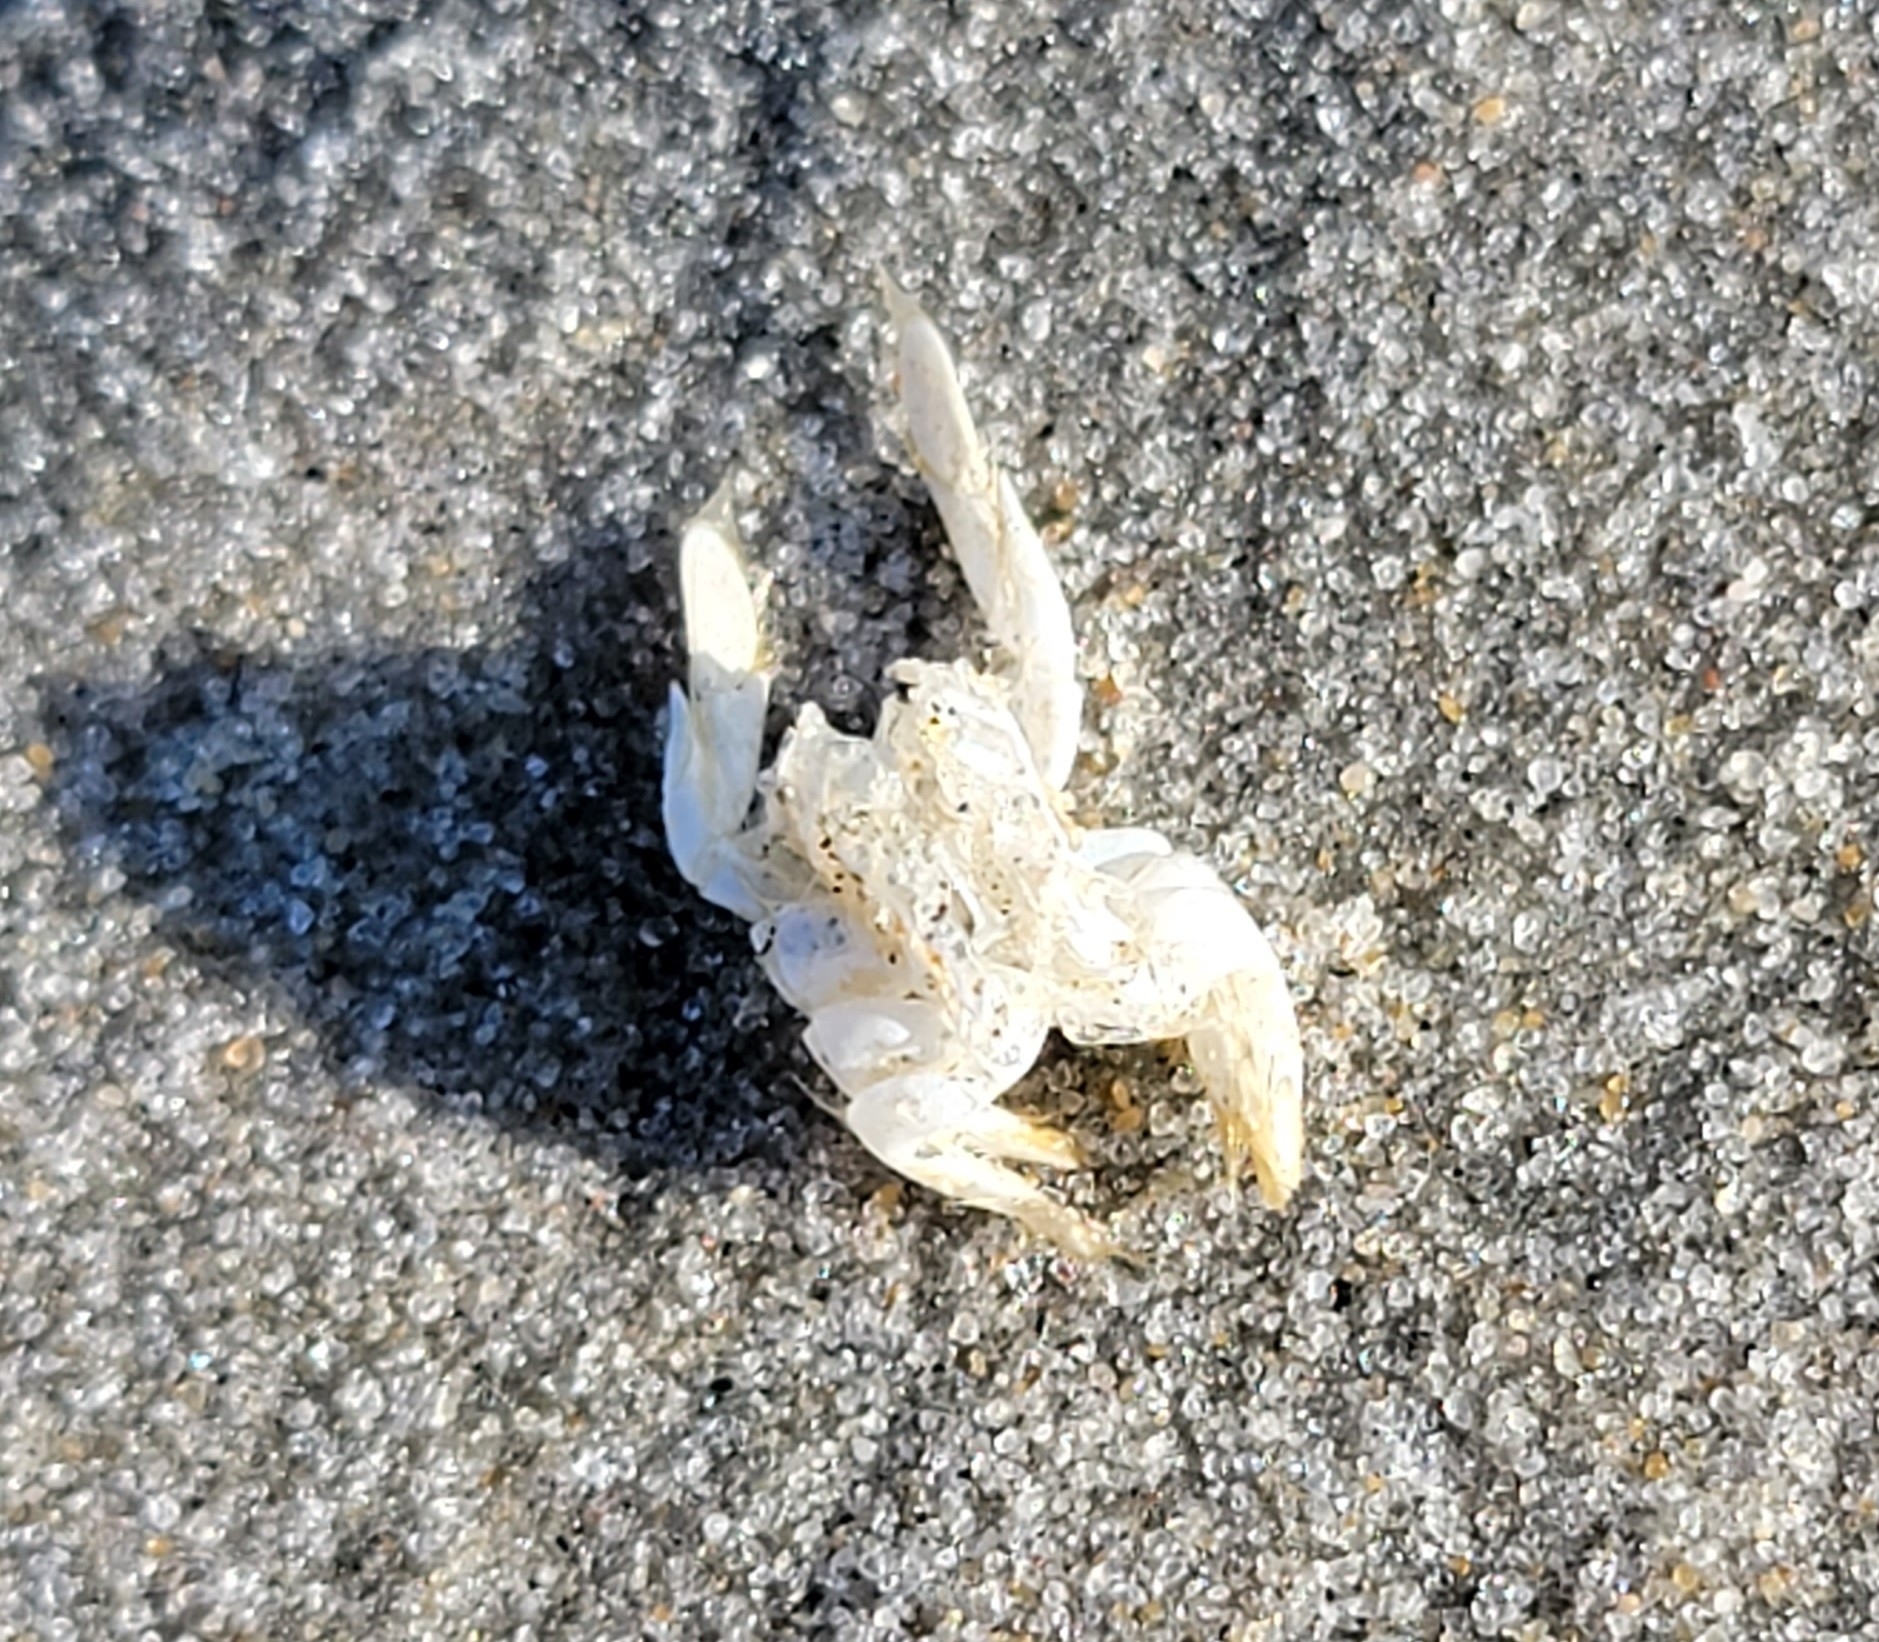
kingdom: Animalia
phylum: Arthropoda
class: Malacostraca
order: Decapoda
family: Hippidae
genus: Emerita
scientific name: Emerita talpoida
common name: Atlantic sand crab
